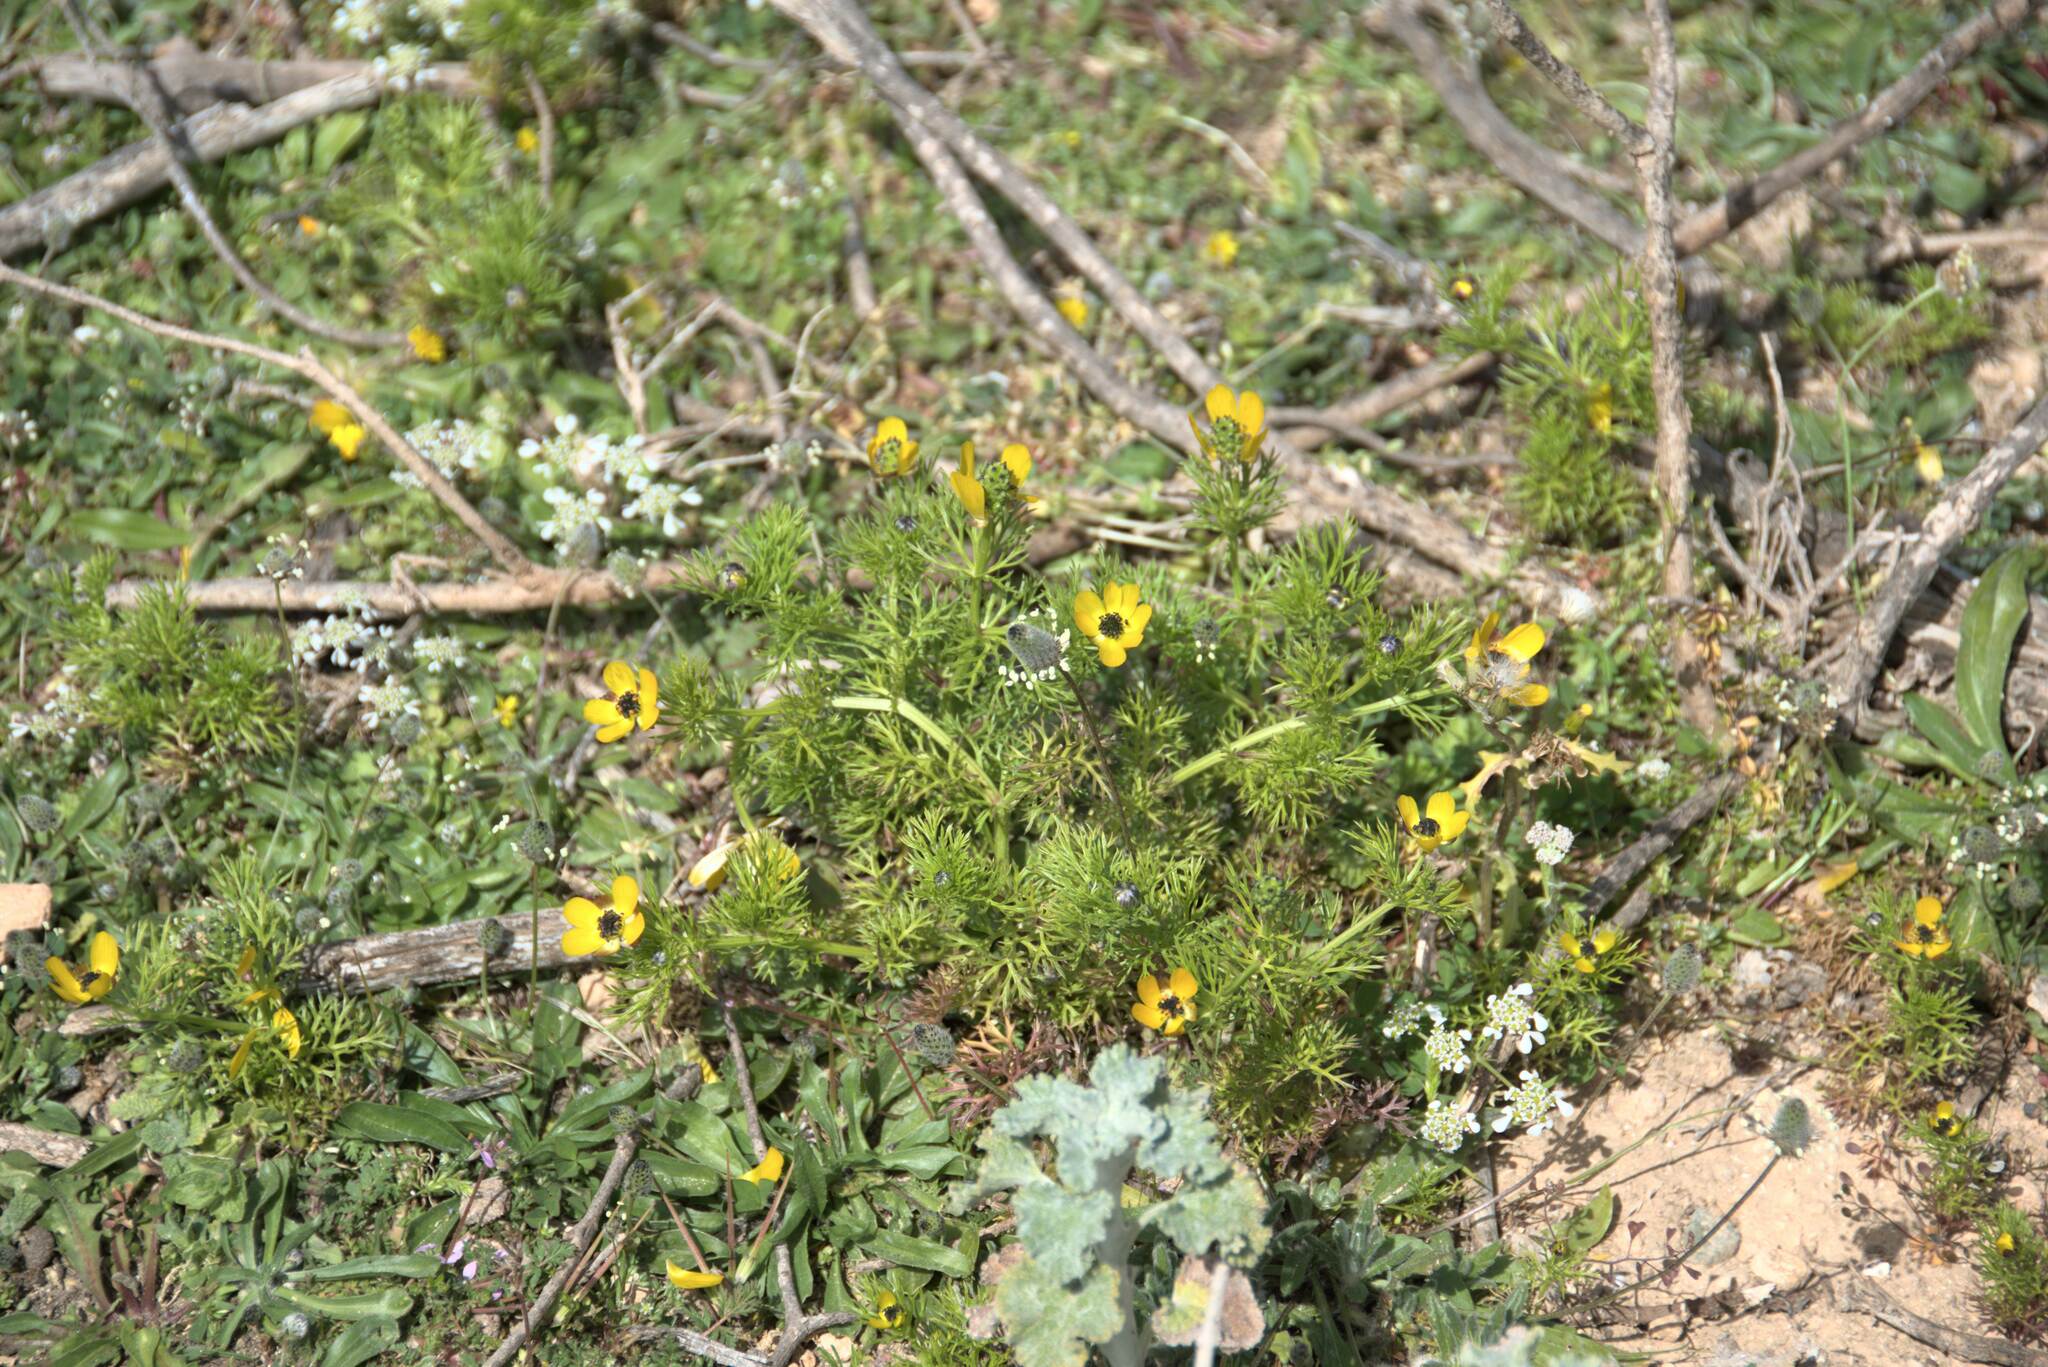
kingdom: Plantae
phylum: Tracheophyta
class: Magnoliopsida
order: Ranunculales
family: Ranunculaceae
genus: Adonis
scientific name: Adonis cretica
